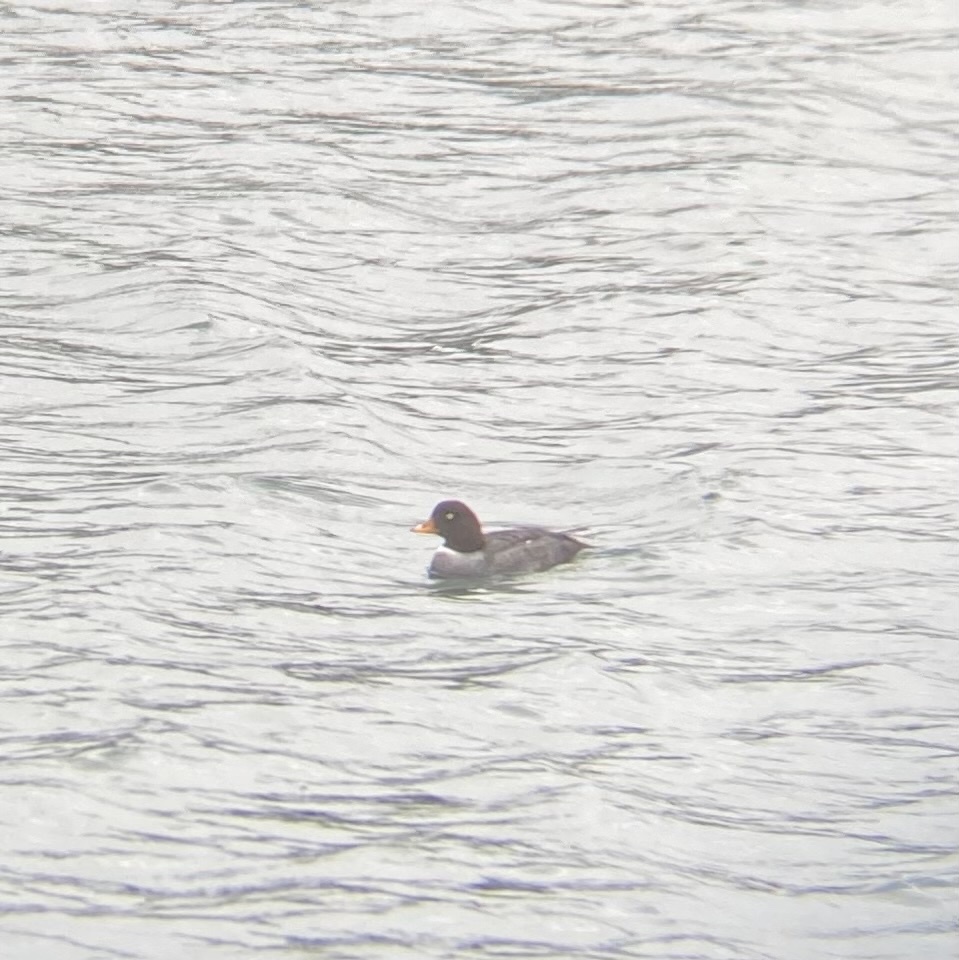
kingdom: Animalia
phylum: Chordata
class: Aves
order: Anseriformes
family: Anatidae
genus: Bucephala
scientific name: Bucephala islandica
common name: Barrow's goldeneye
